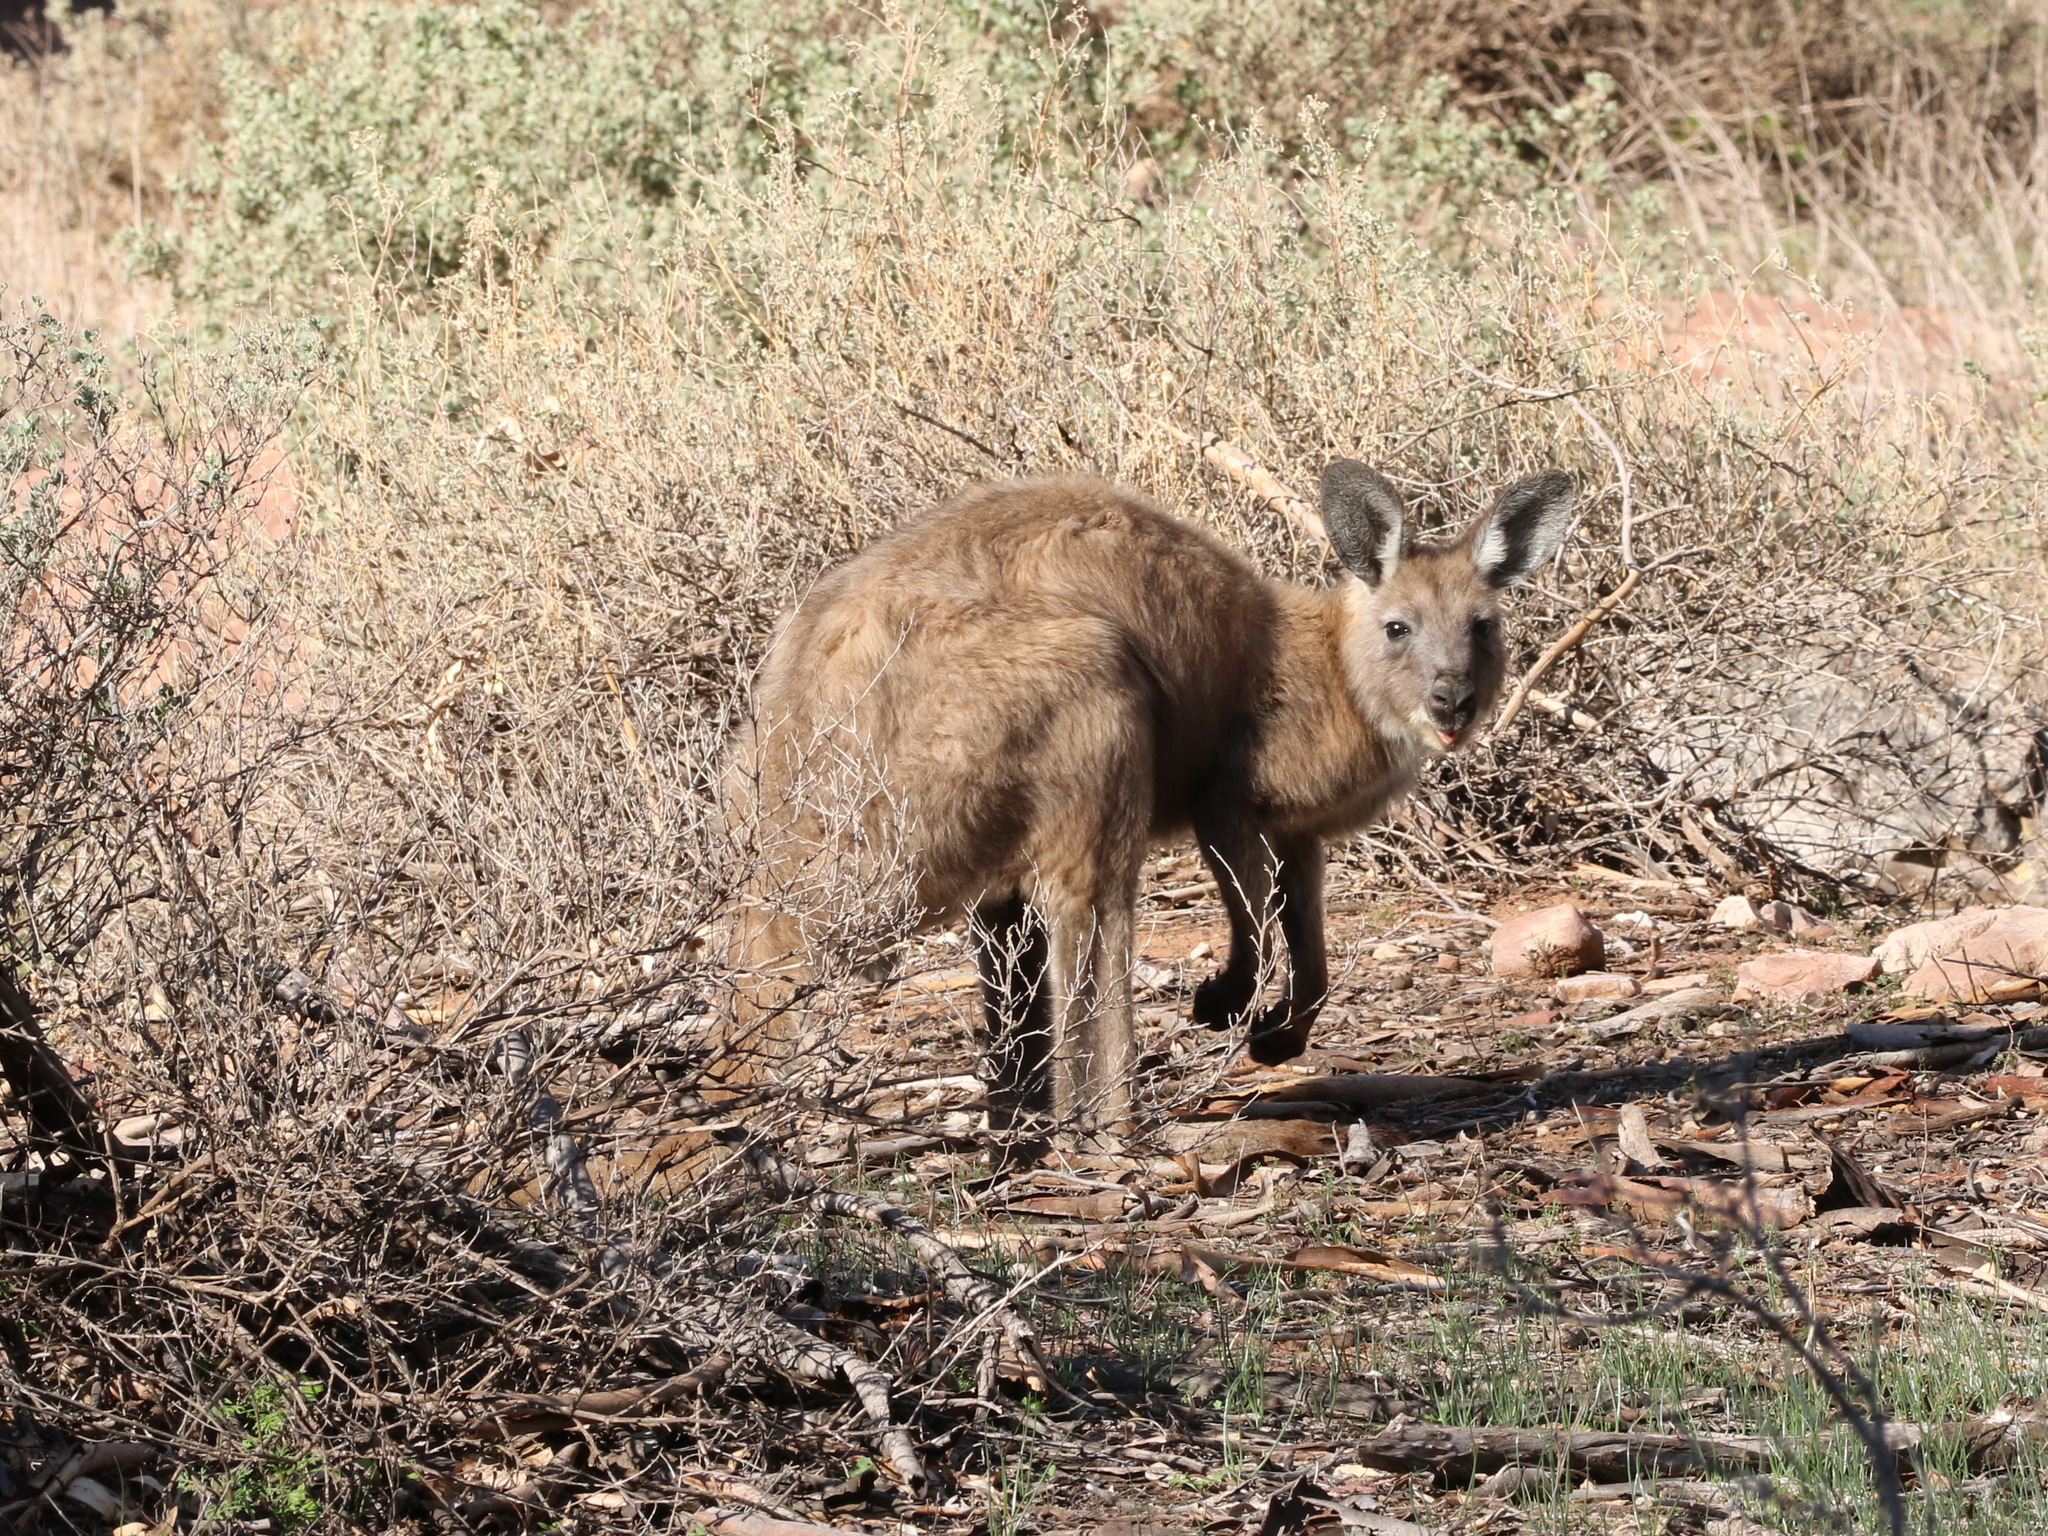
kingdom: Animalia
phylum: Chordata
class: Mammalia
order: Diprotodontia
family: Macropodidae
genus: Macropus
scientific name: Macropus robustus
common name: Eastern wallaroo
